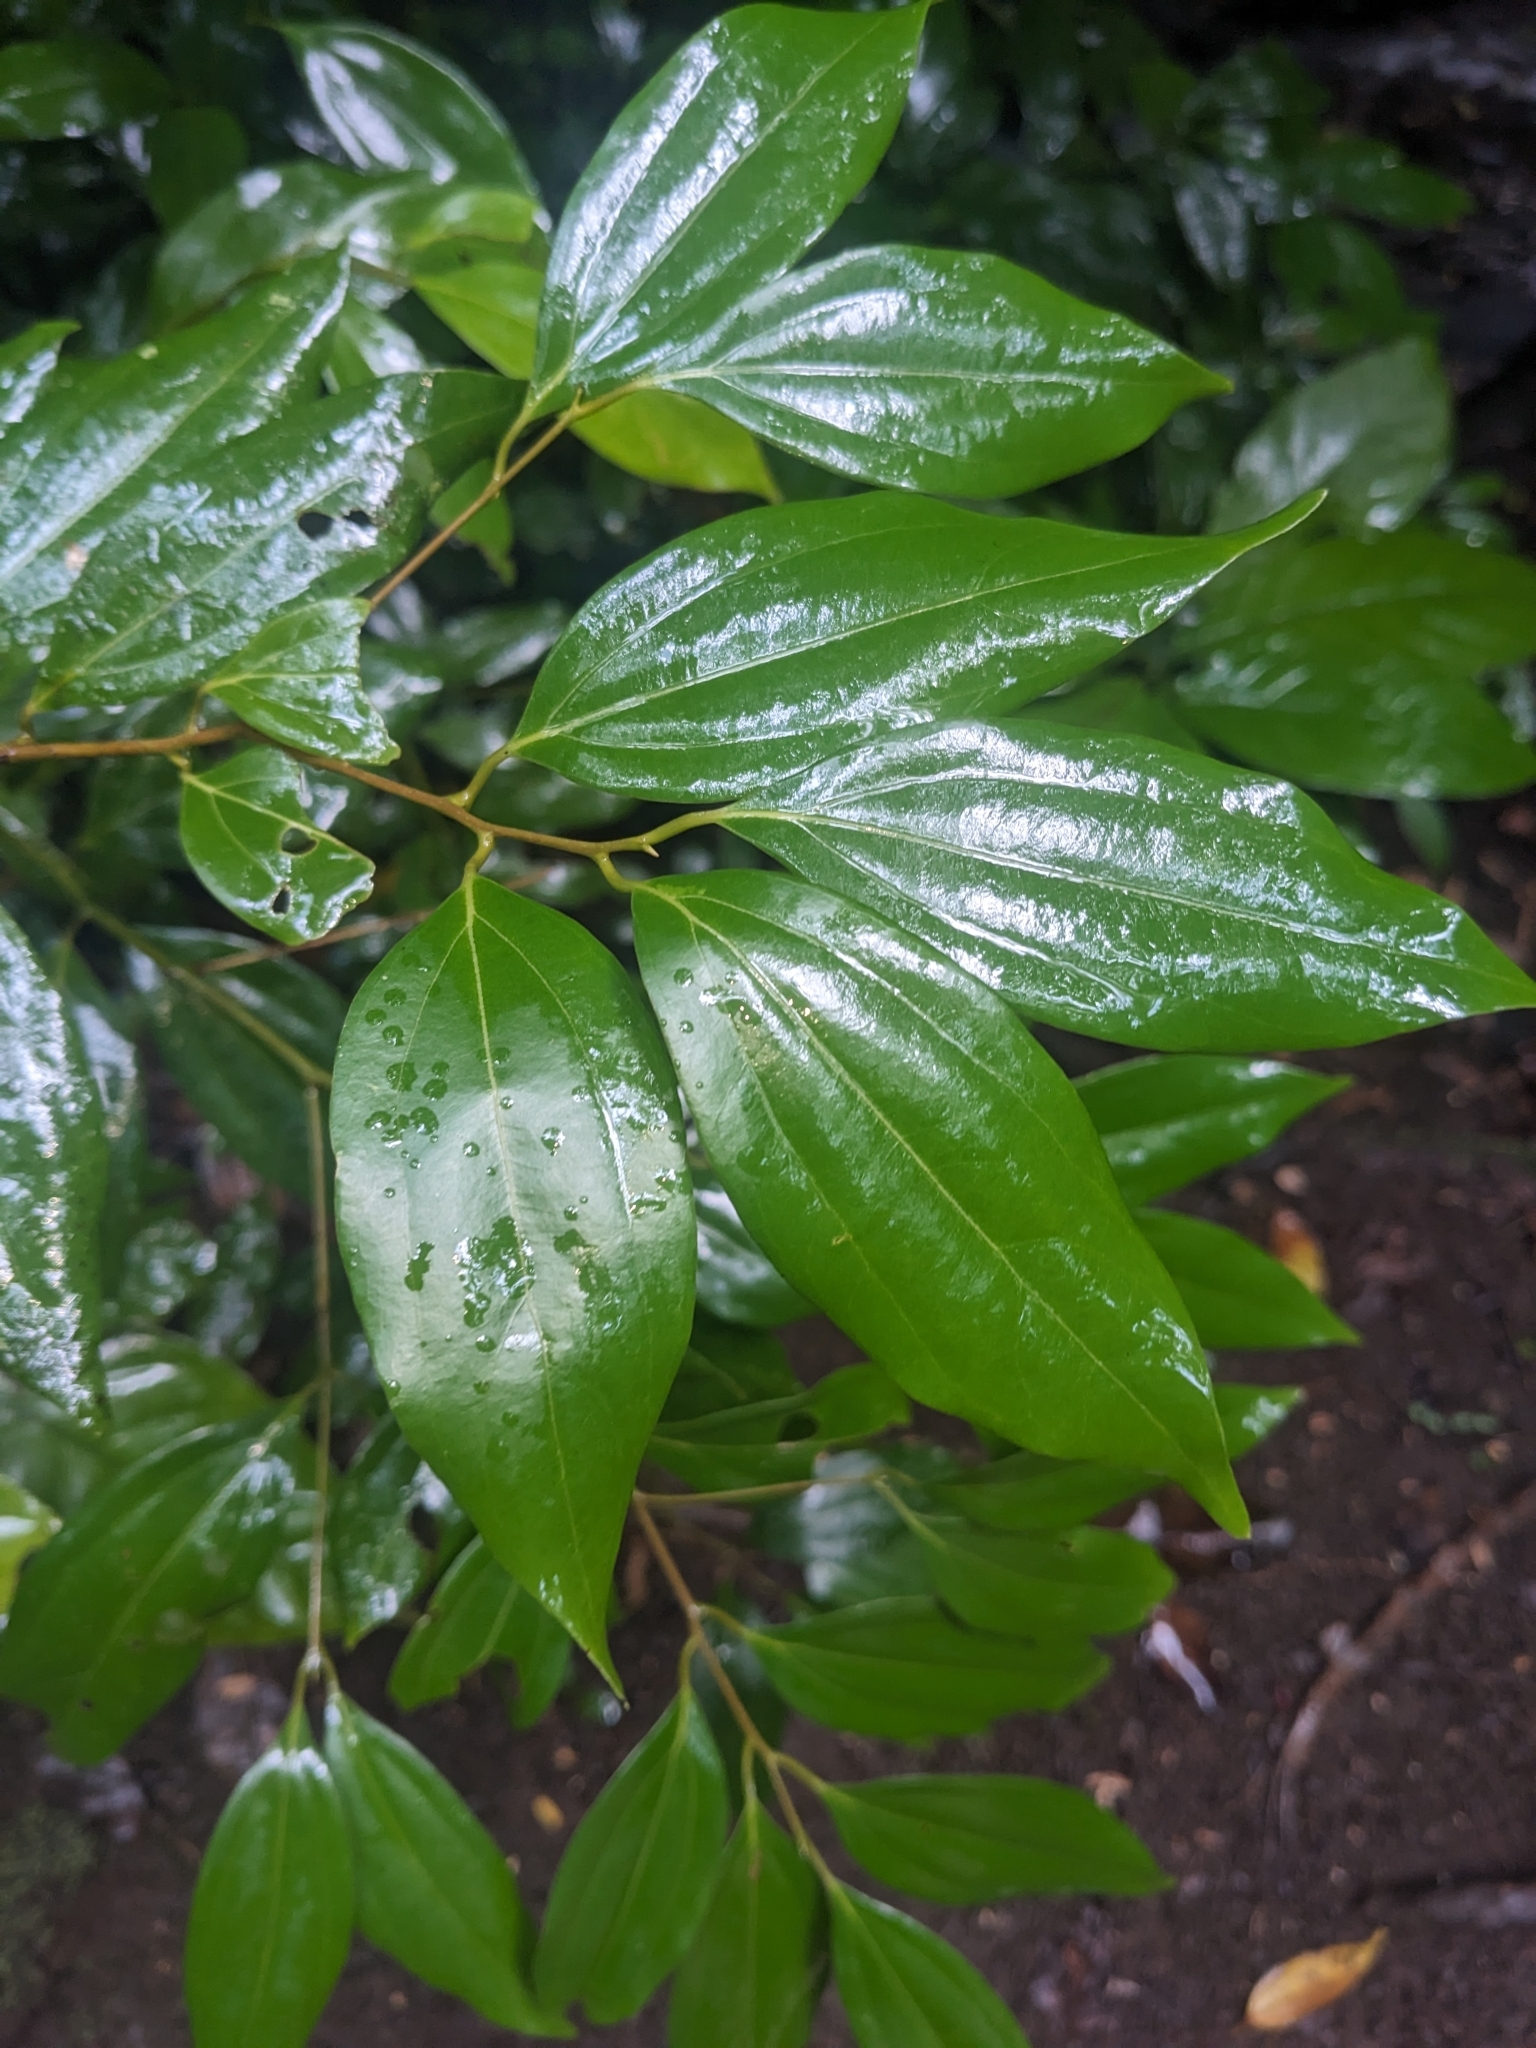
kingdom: Plantae
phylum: Tracheophyta
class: Magnoliopsida
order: Laurales
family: Lauraceae
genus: Cinnamomum
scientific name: Cinnamomum burmanni
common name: Padang cassia
